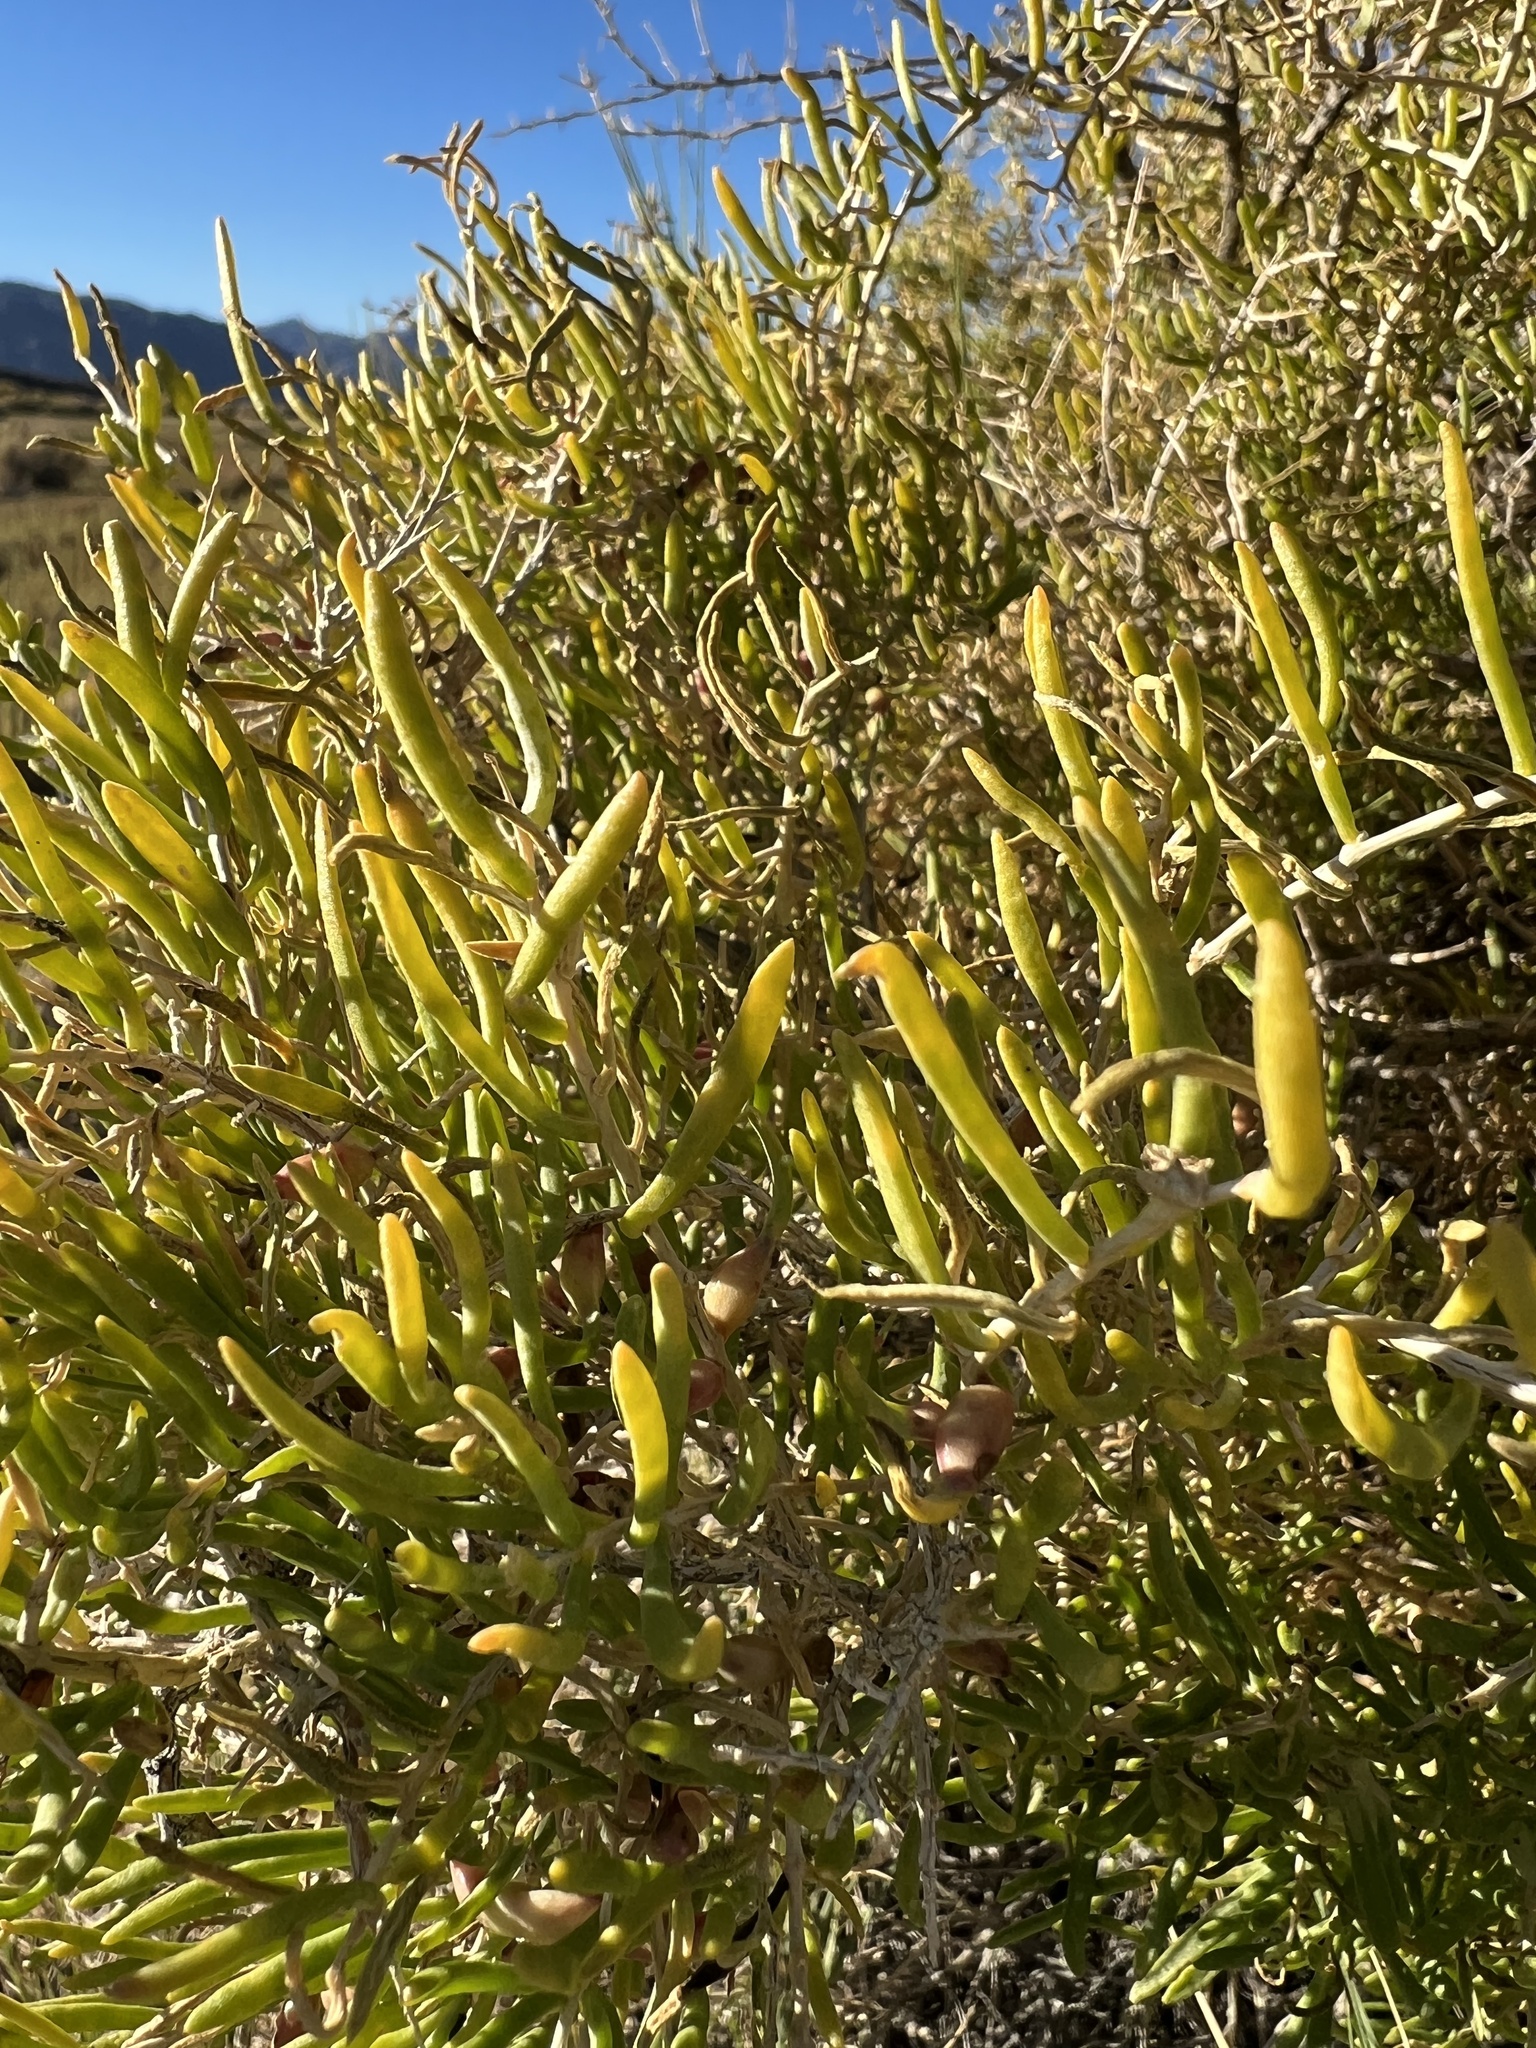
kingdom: Plantae
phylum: Tracheophyta
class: Magnoliopsida
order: Caryophyllales
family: Sarcobataceae
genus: Sarcobatus
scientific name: Sarcobatus vermiculatus
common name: Greasewood
